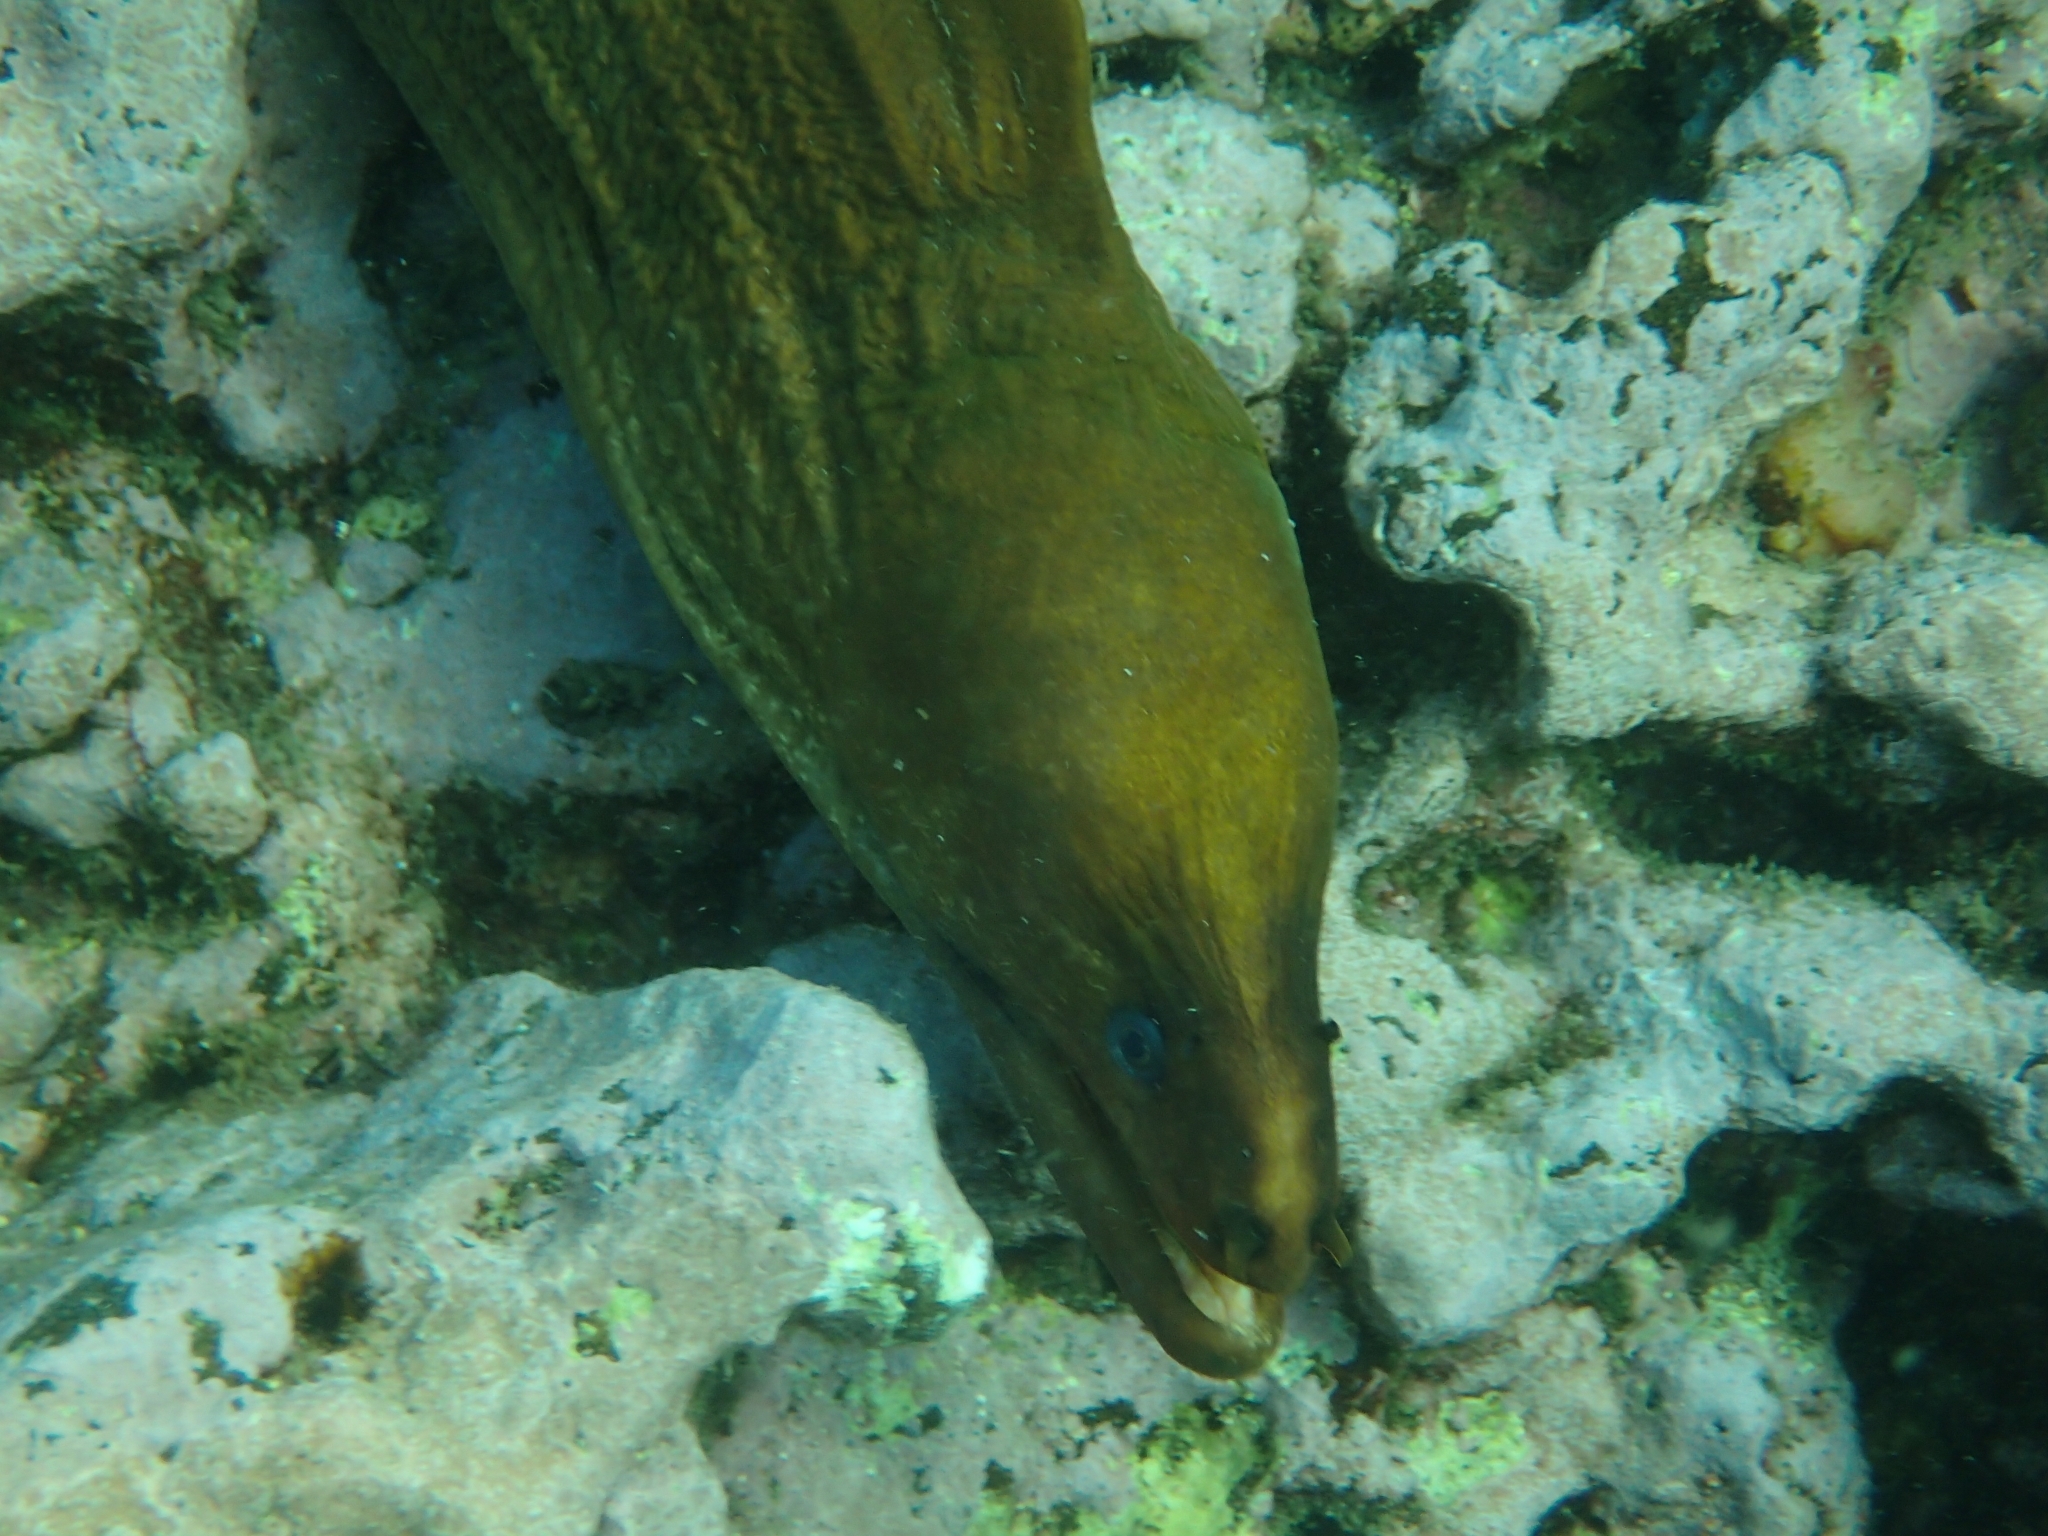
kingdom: Animalia
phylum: Chordata
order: Anguilliformes
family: Muraenidae
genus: Gymnothorax
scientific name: Gymnothorax prasinus
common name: Yellow moray
